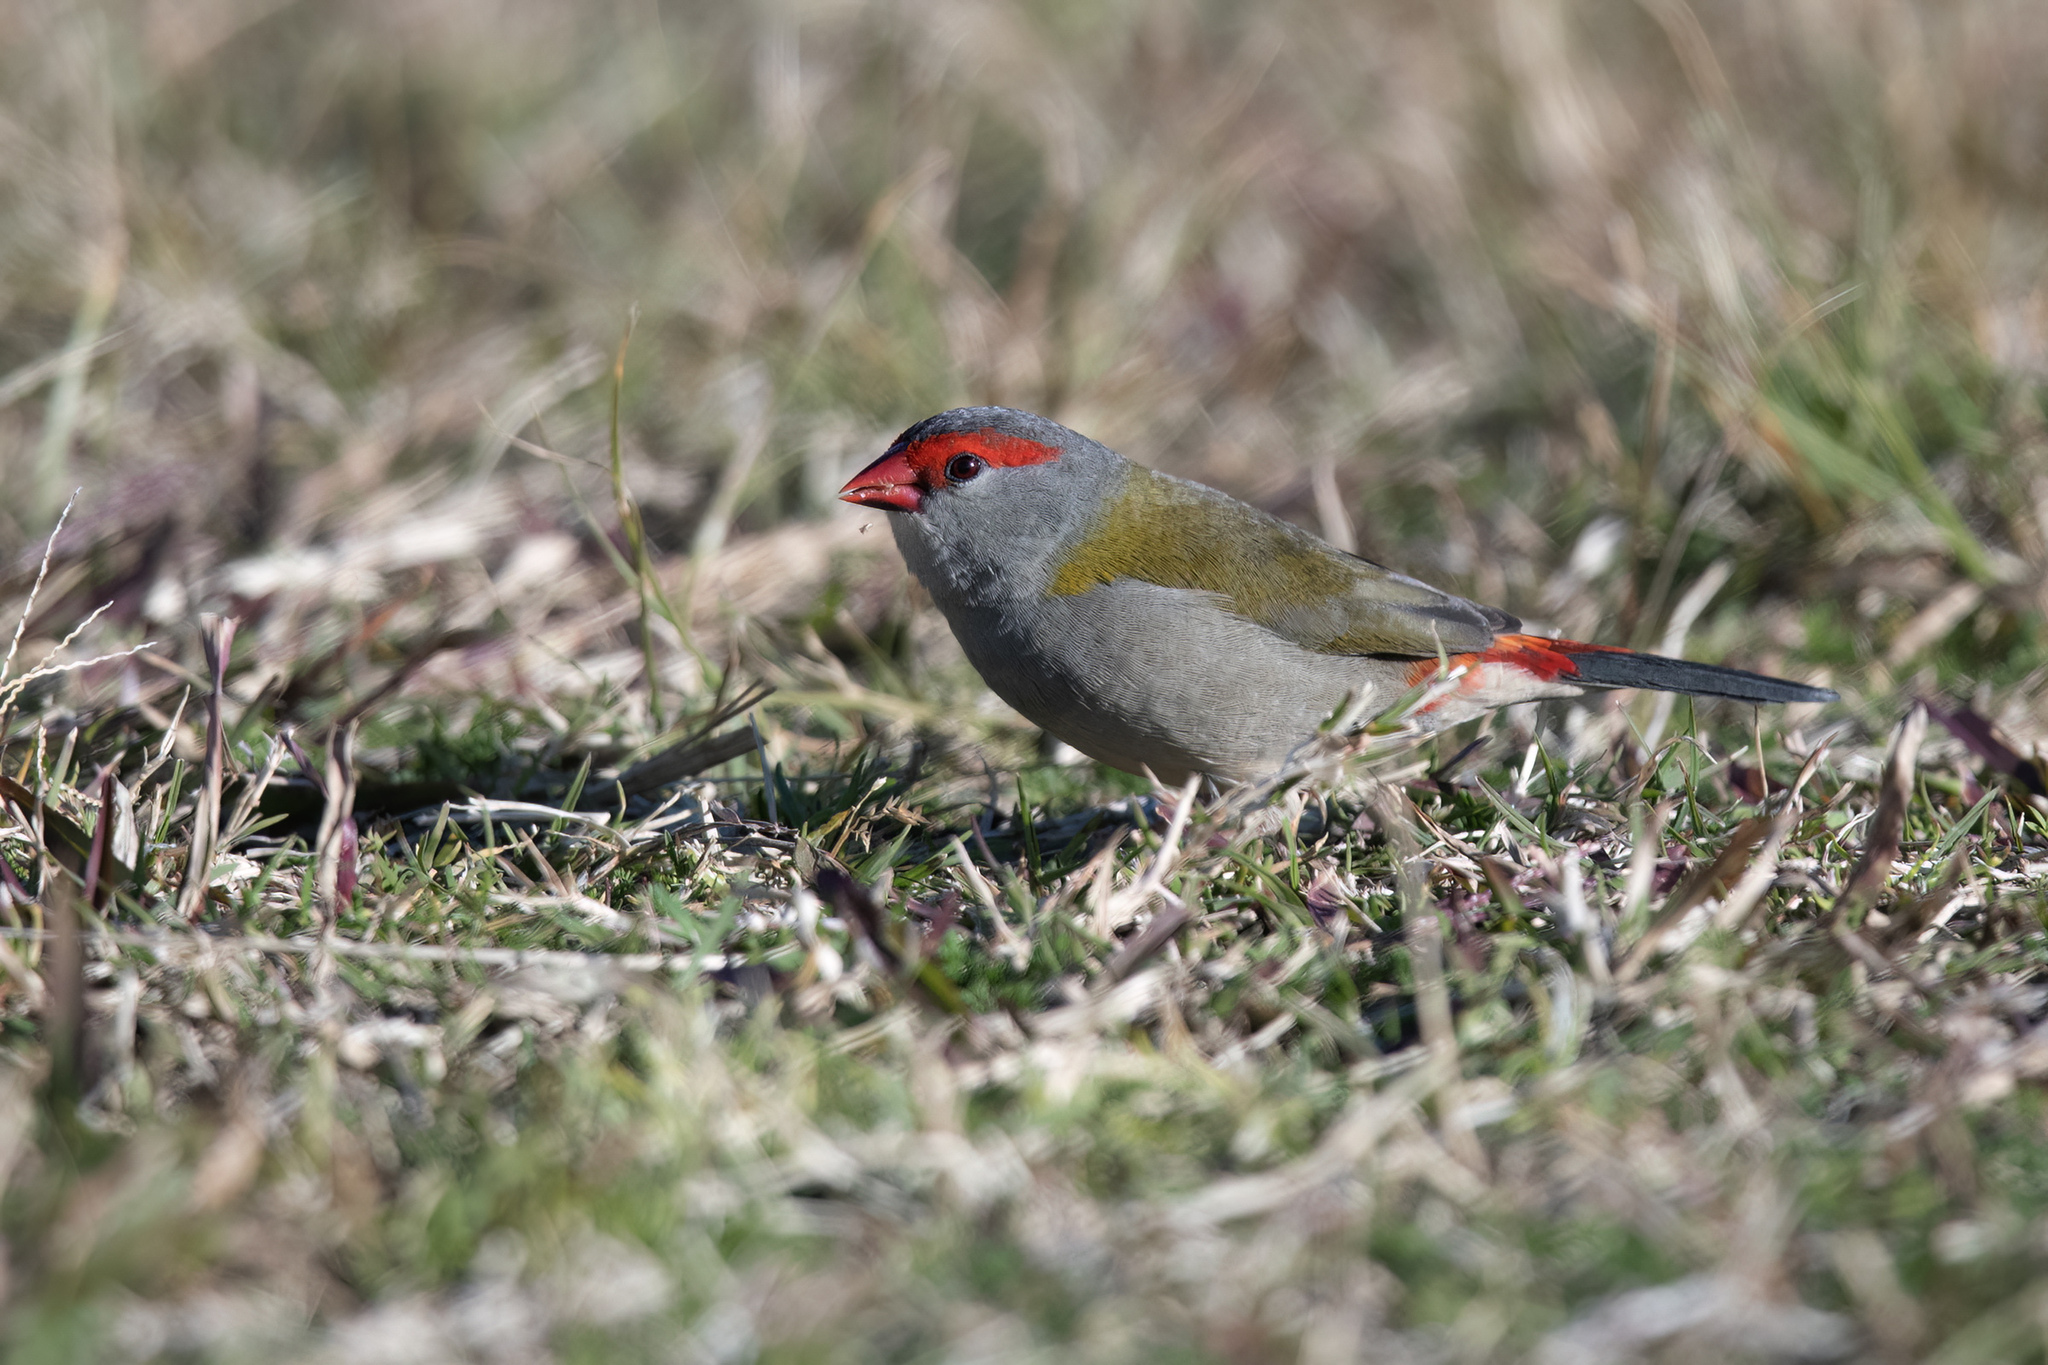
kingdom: Animalia
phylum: Chordata
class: Aves
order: Passeriformes
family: Estrildidae
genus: Neochmia
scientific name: Neochmia temporalis
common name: Red-browed finch
